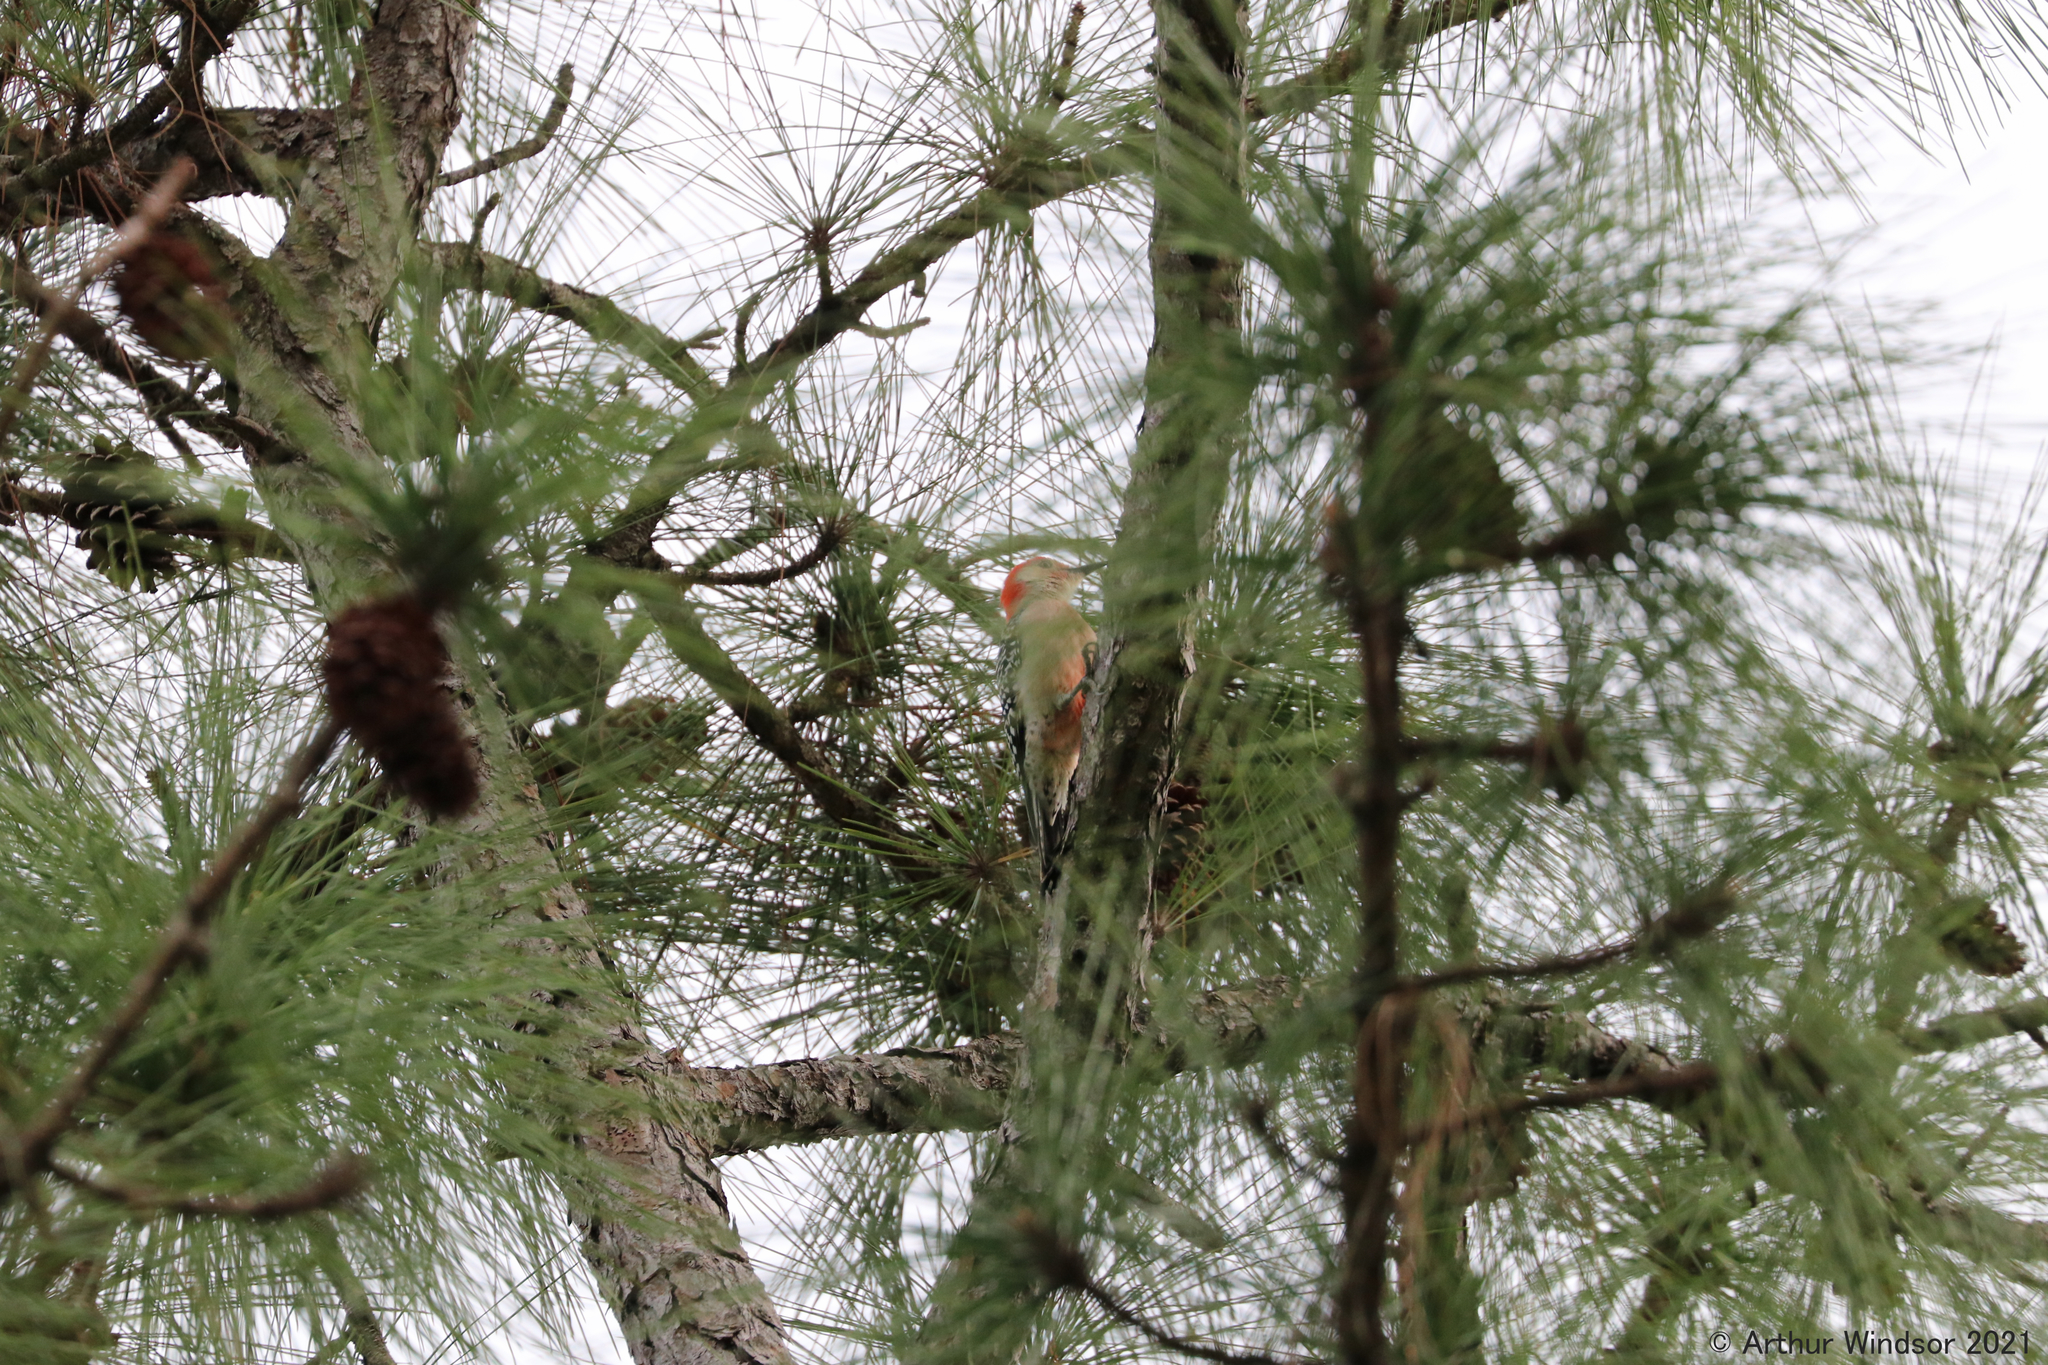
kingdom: Animalia
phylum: Chordata
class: Aves
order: Piciformes
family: Picidae
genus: Melanerpes
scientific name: Melanerpes carolinus
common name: Red-bellied woodpecker
